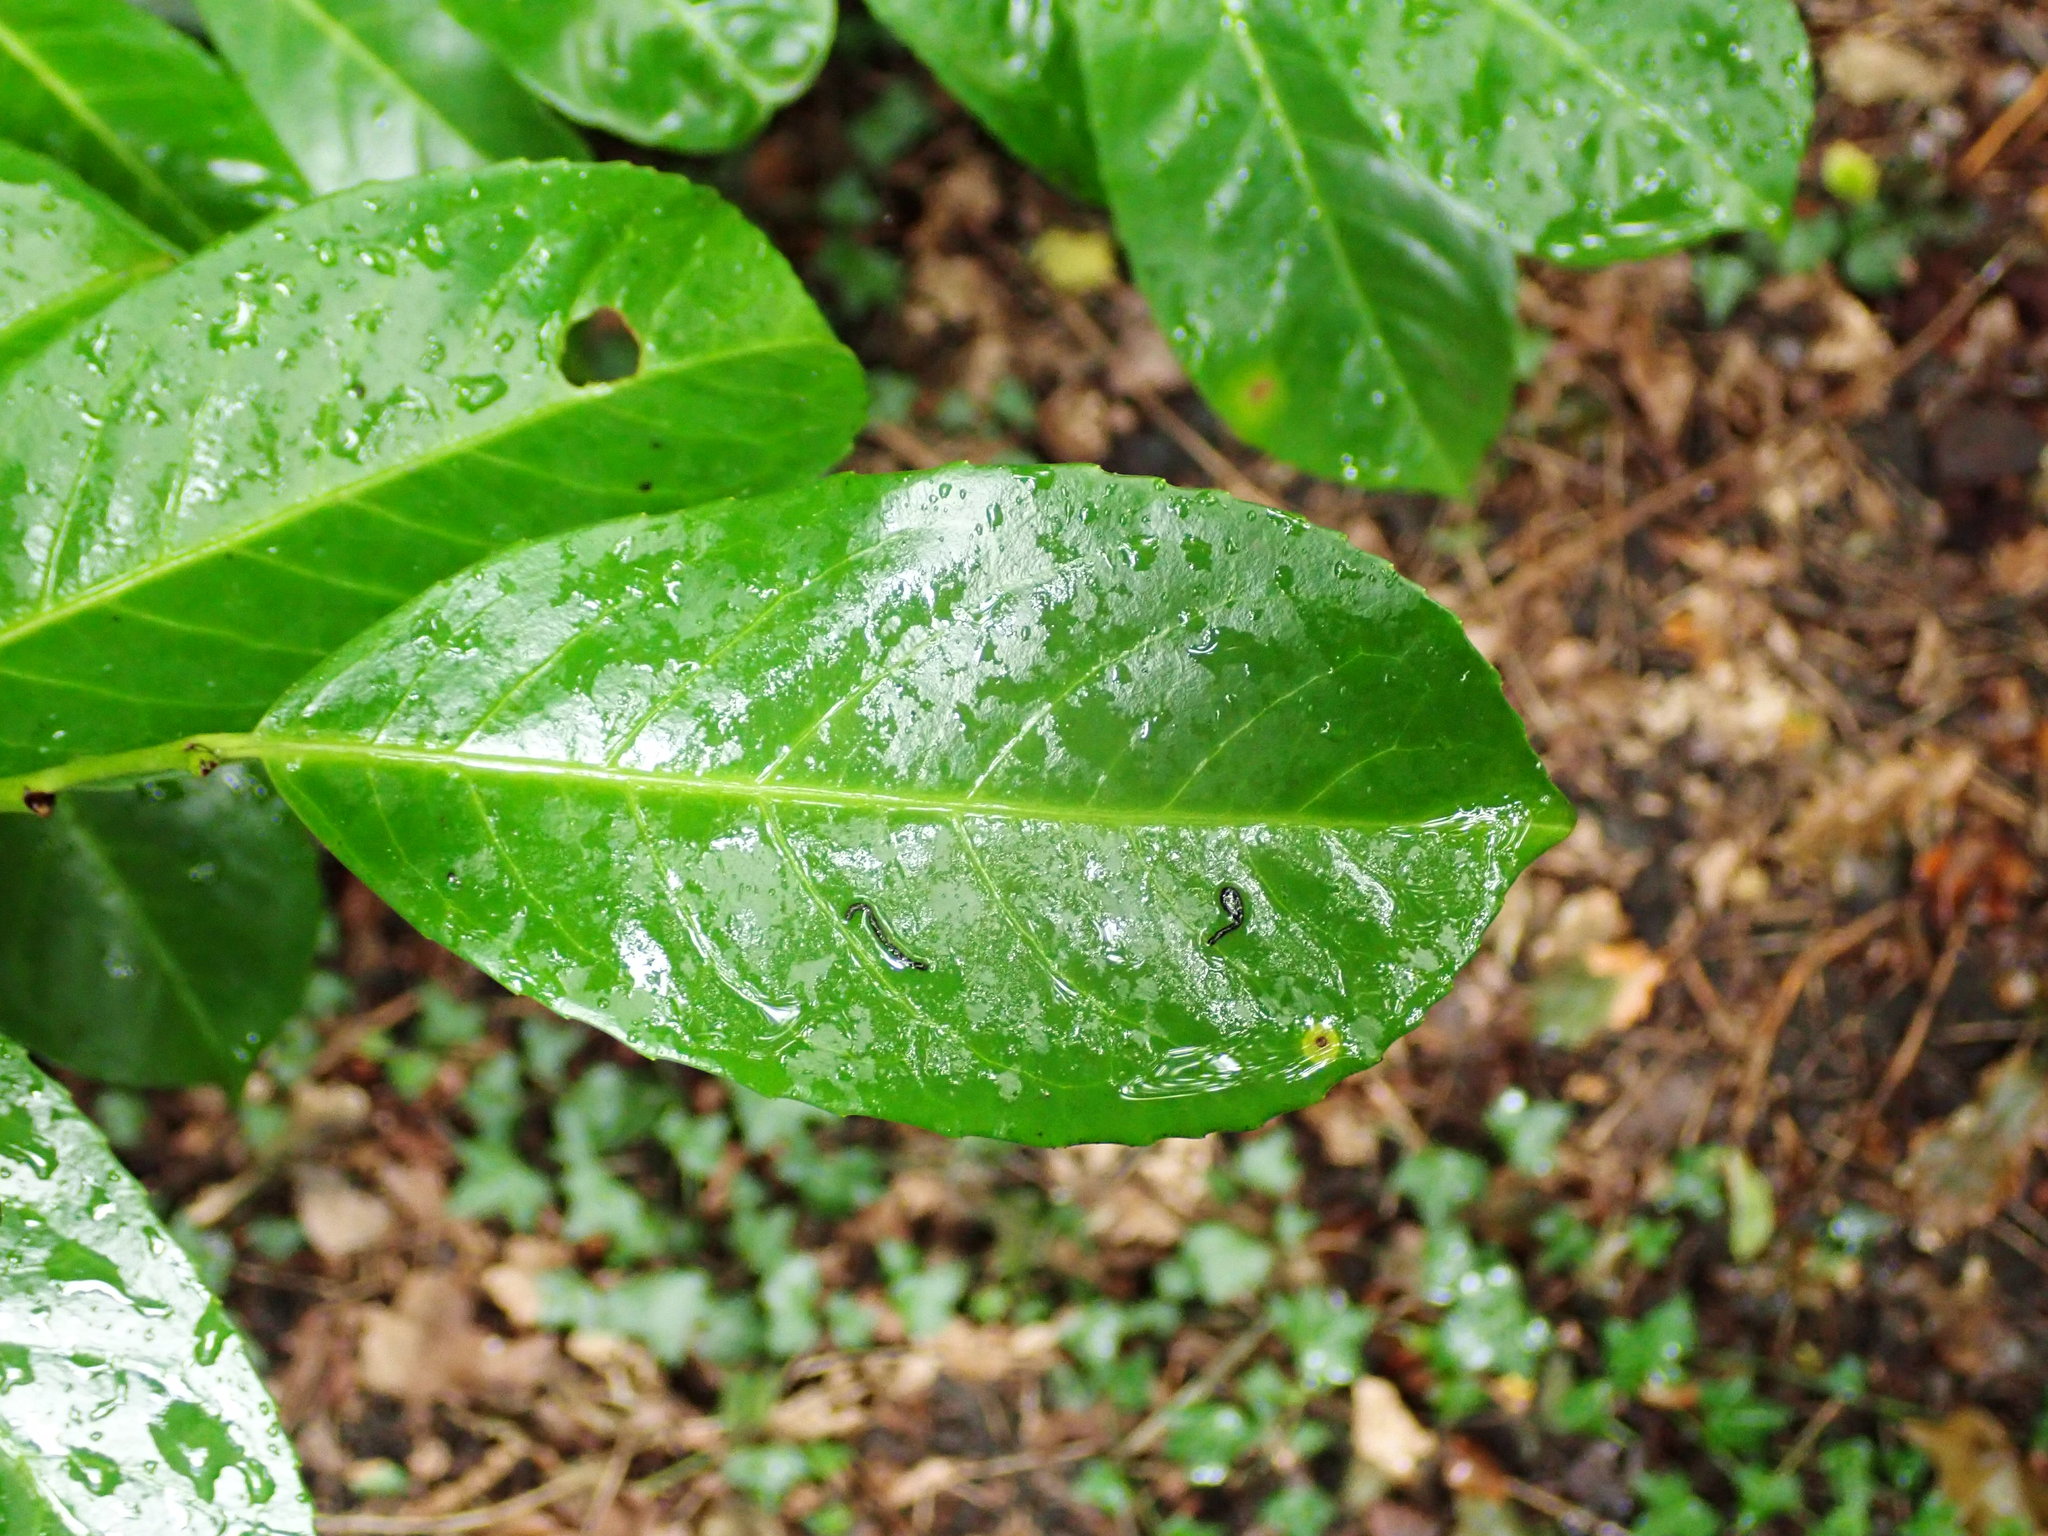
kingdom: Plantae
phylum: Tracheophyta
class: Magnoliopsida
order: Rosales
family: Rosaceae
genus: Prunus
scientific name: Prunus laurocerasus
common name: Cherry laurel
